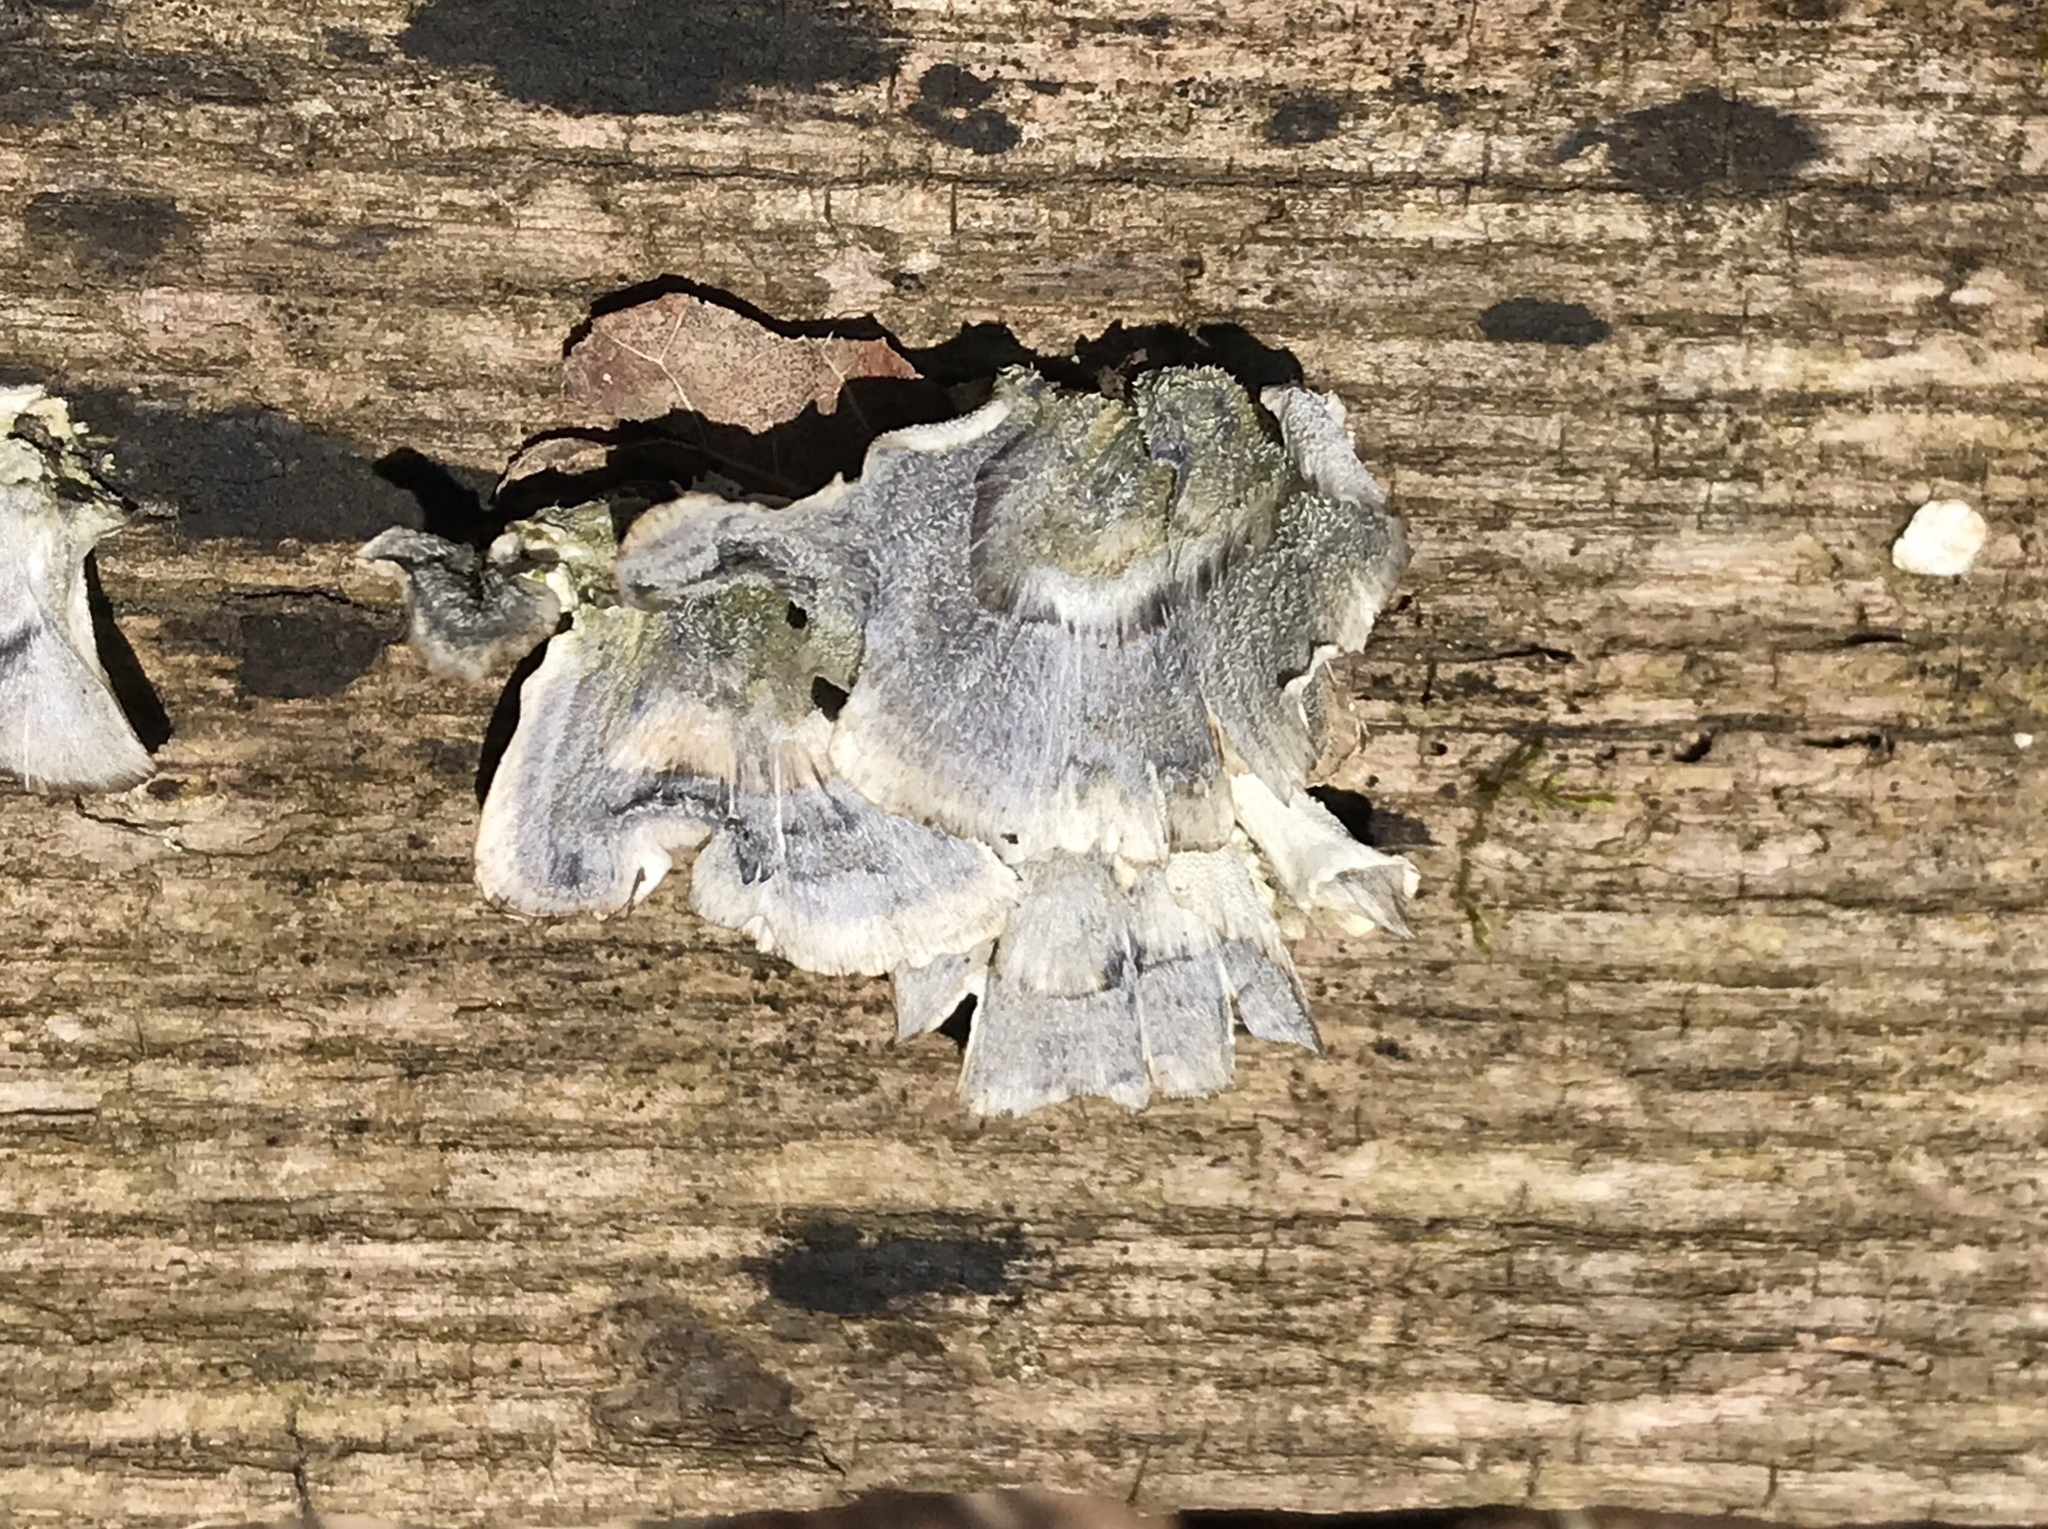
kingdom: Fungi
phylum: Basidiomycota
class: Agaricomycetes
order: Polyporales
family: Polyporaceae
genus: Trametes
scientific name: Trametes versicolor
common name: Turkeytail
